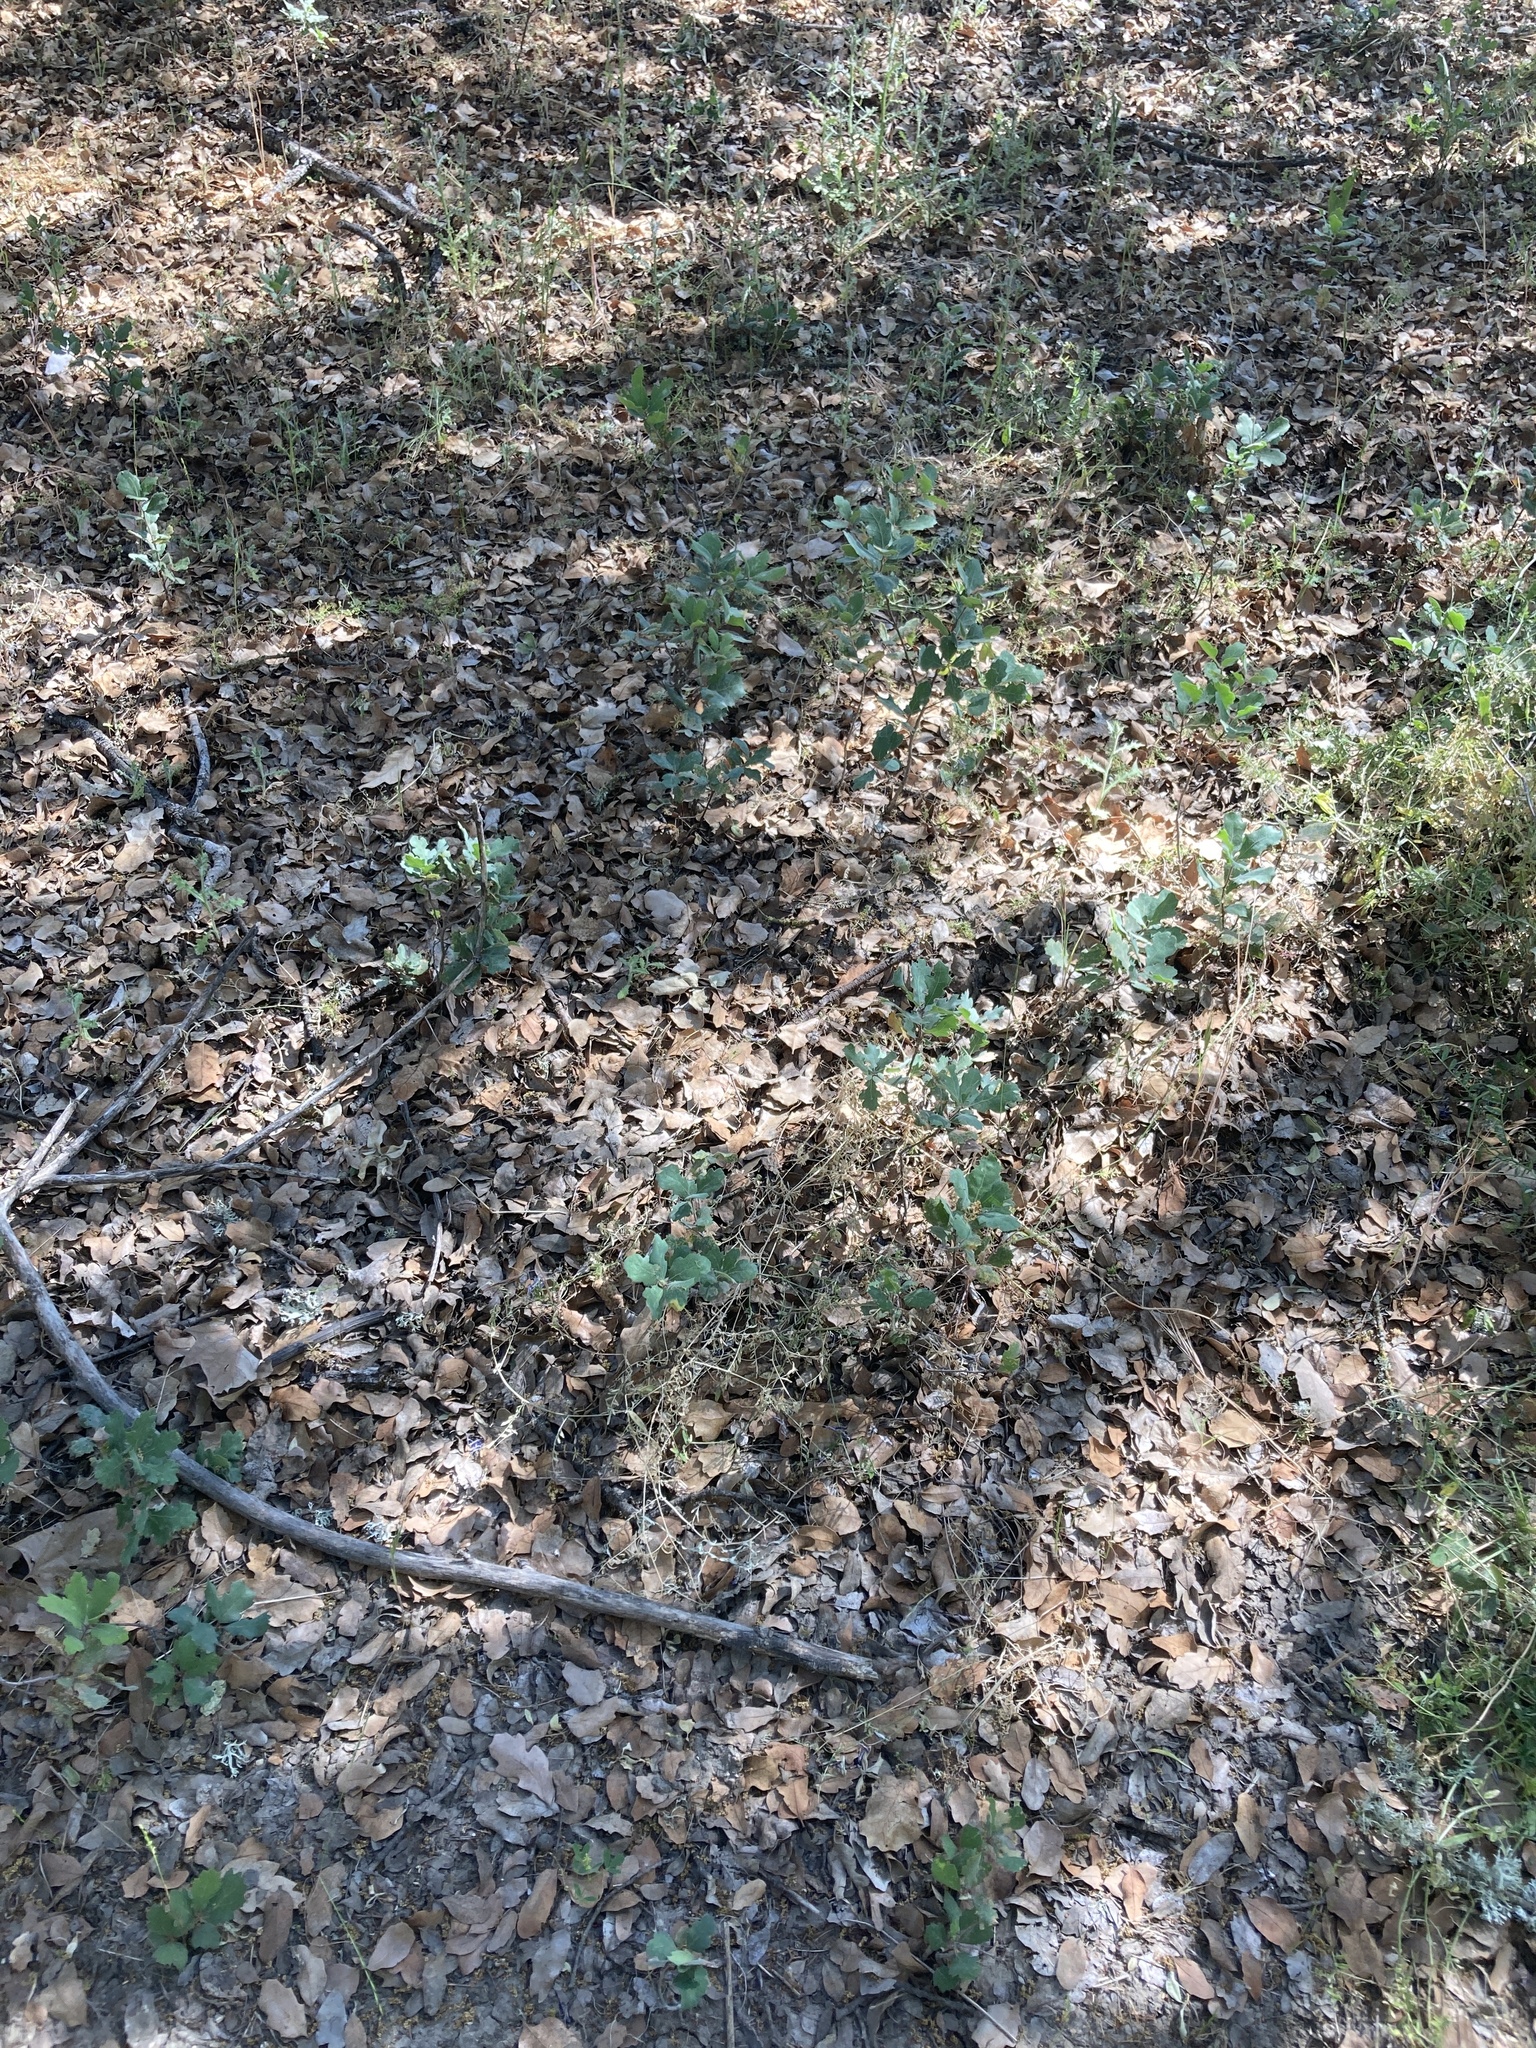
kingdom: Plantae
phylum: Tracheophyta
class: Magnoliopsida
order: Fagales
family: Fagaceae
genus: Quercus
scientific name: Quercus douglasii
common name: Blue oak
